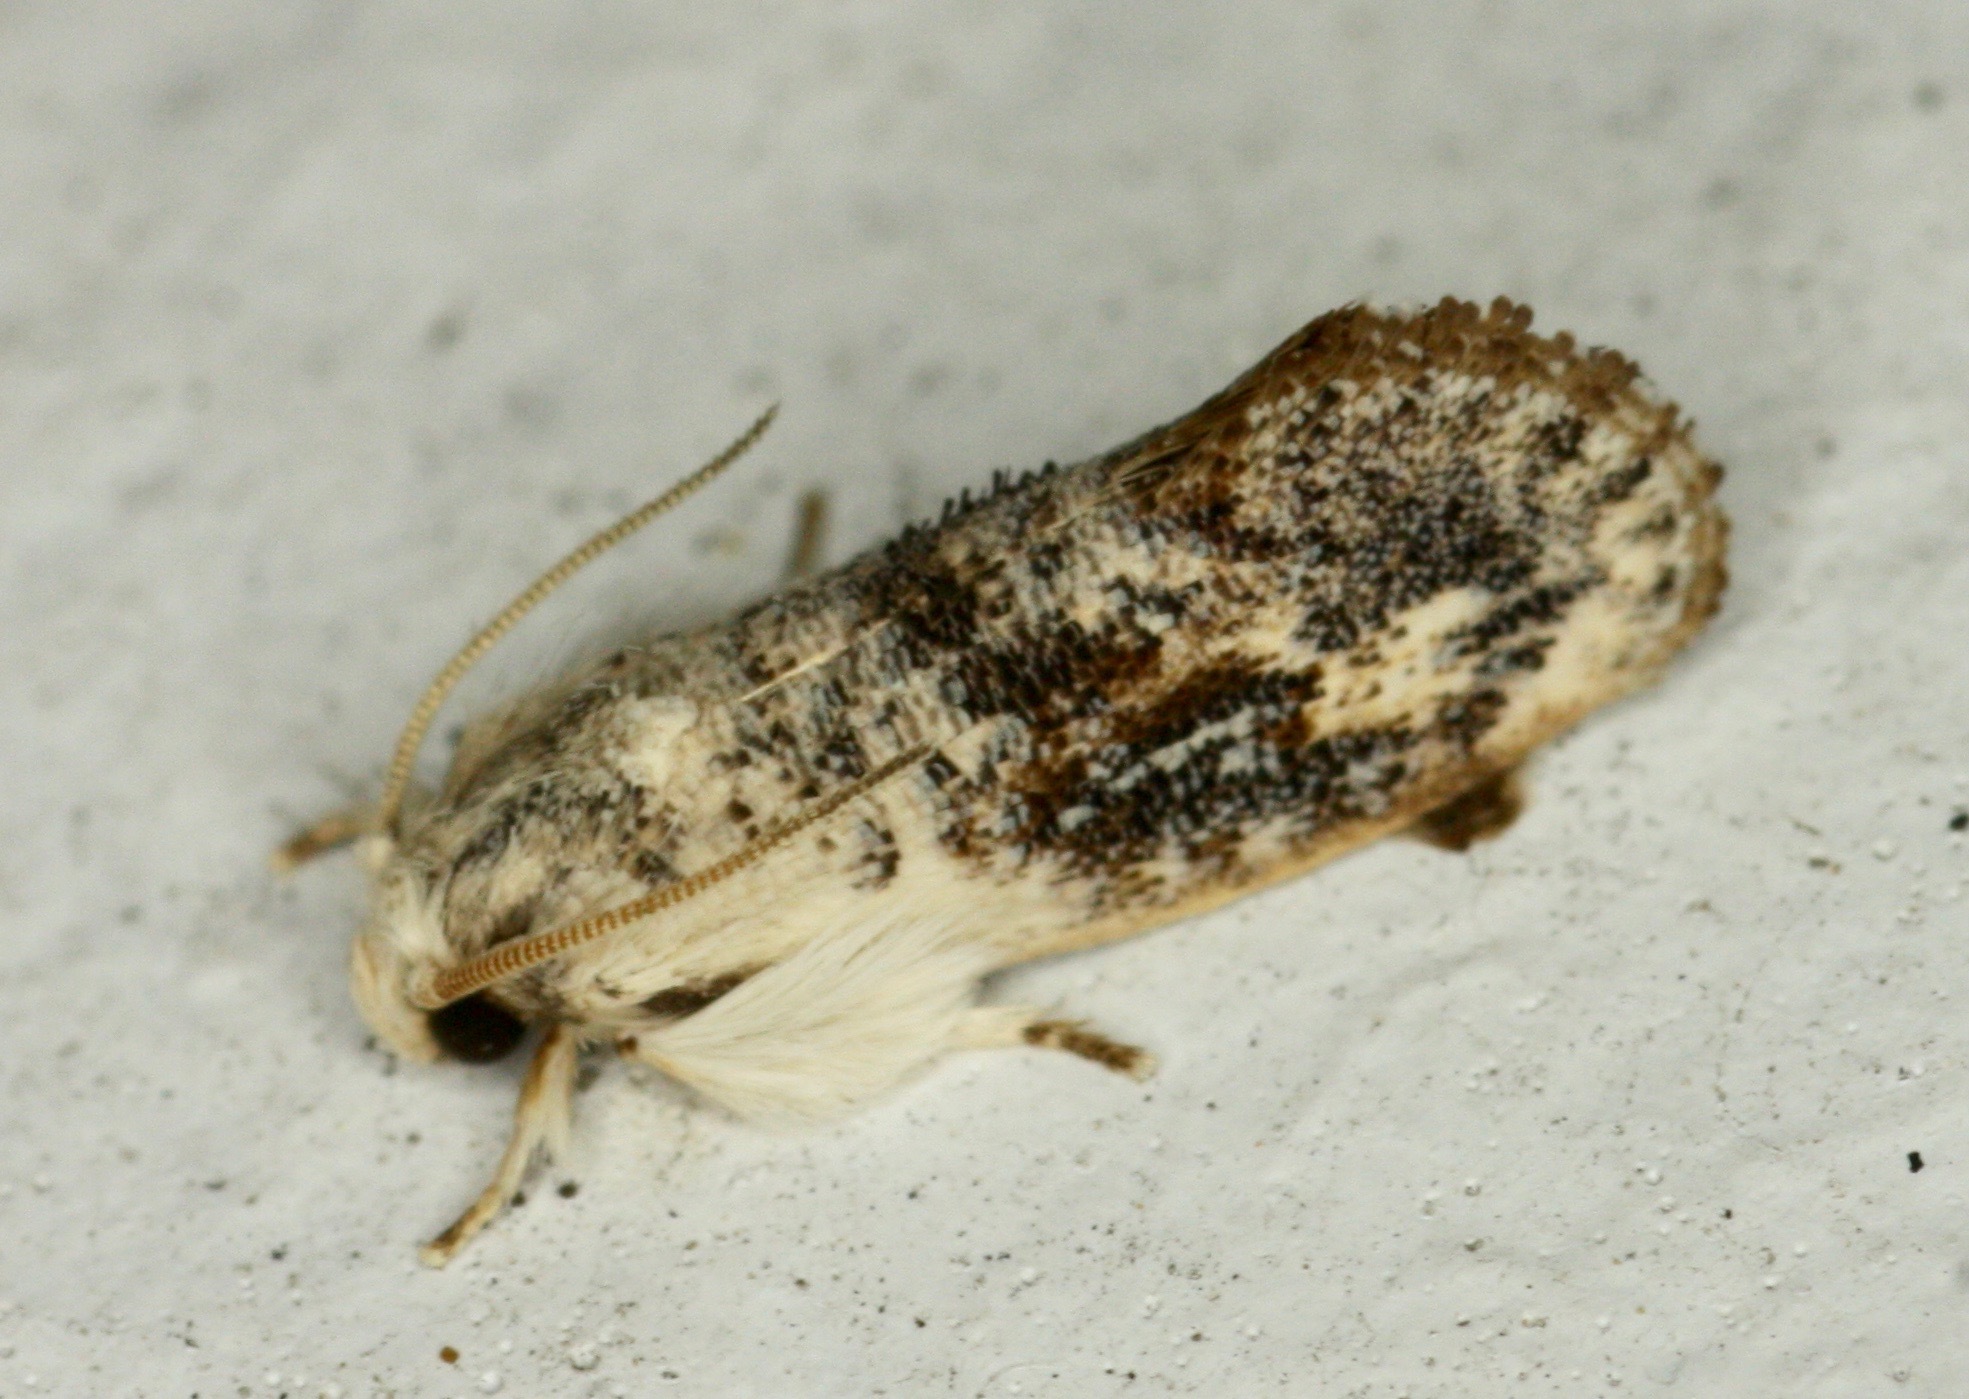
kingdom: Animalia
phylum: Arthropoda
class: Insecta
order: Lepidoptera
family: Tineidae
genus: Acrolophus
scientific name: Acrolophus mycetophagus
